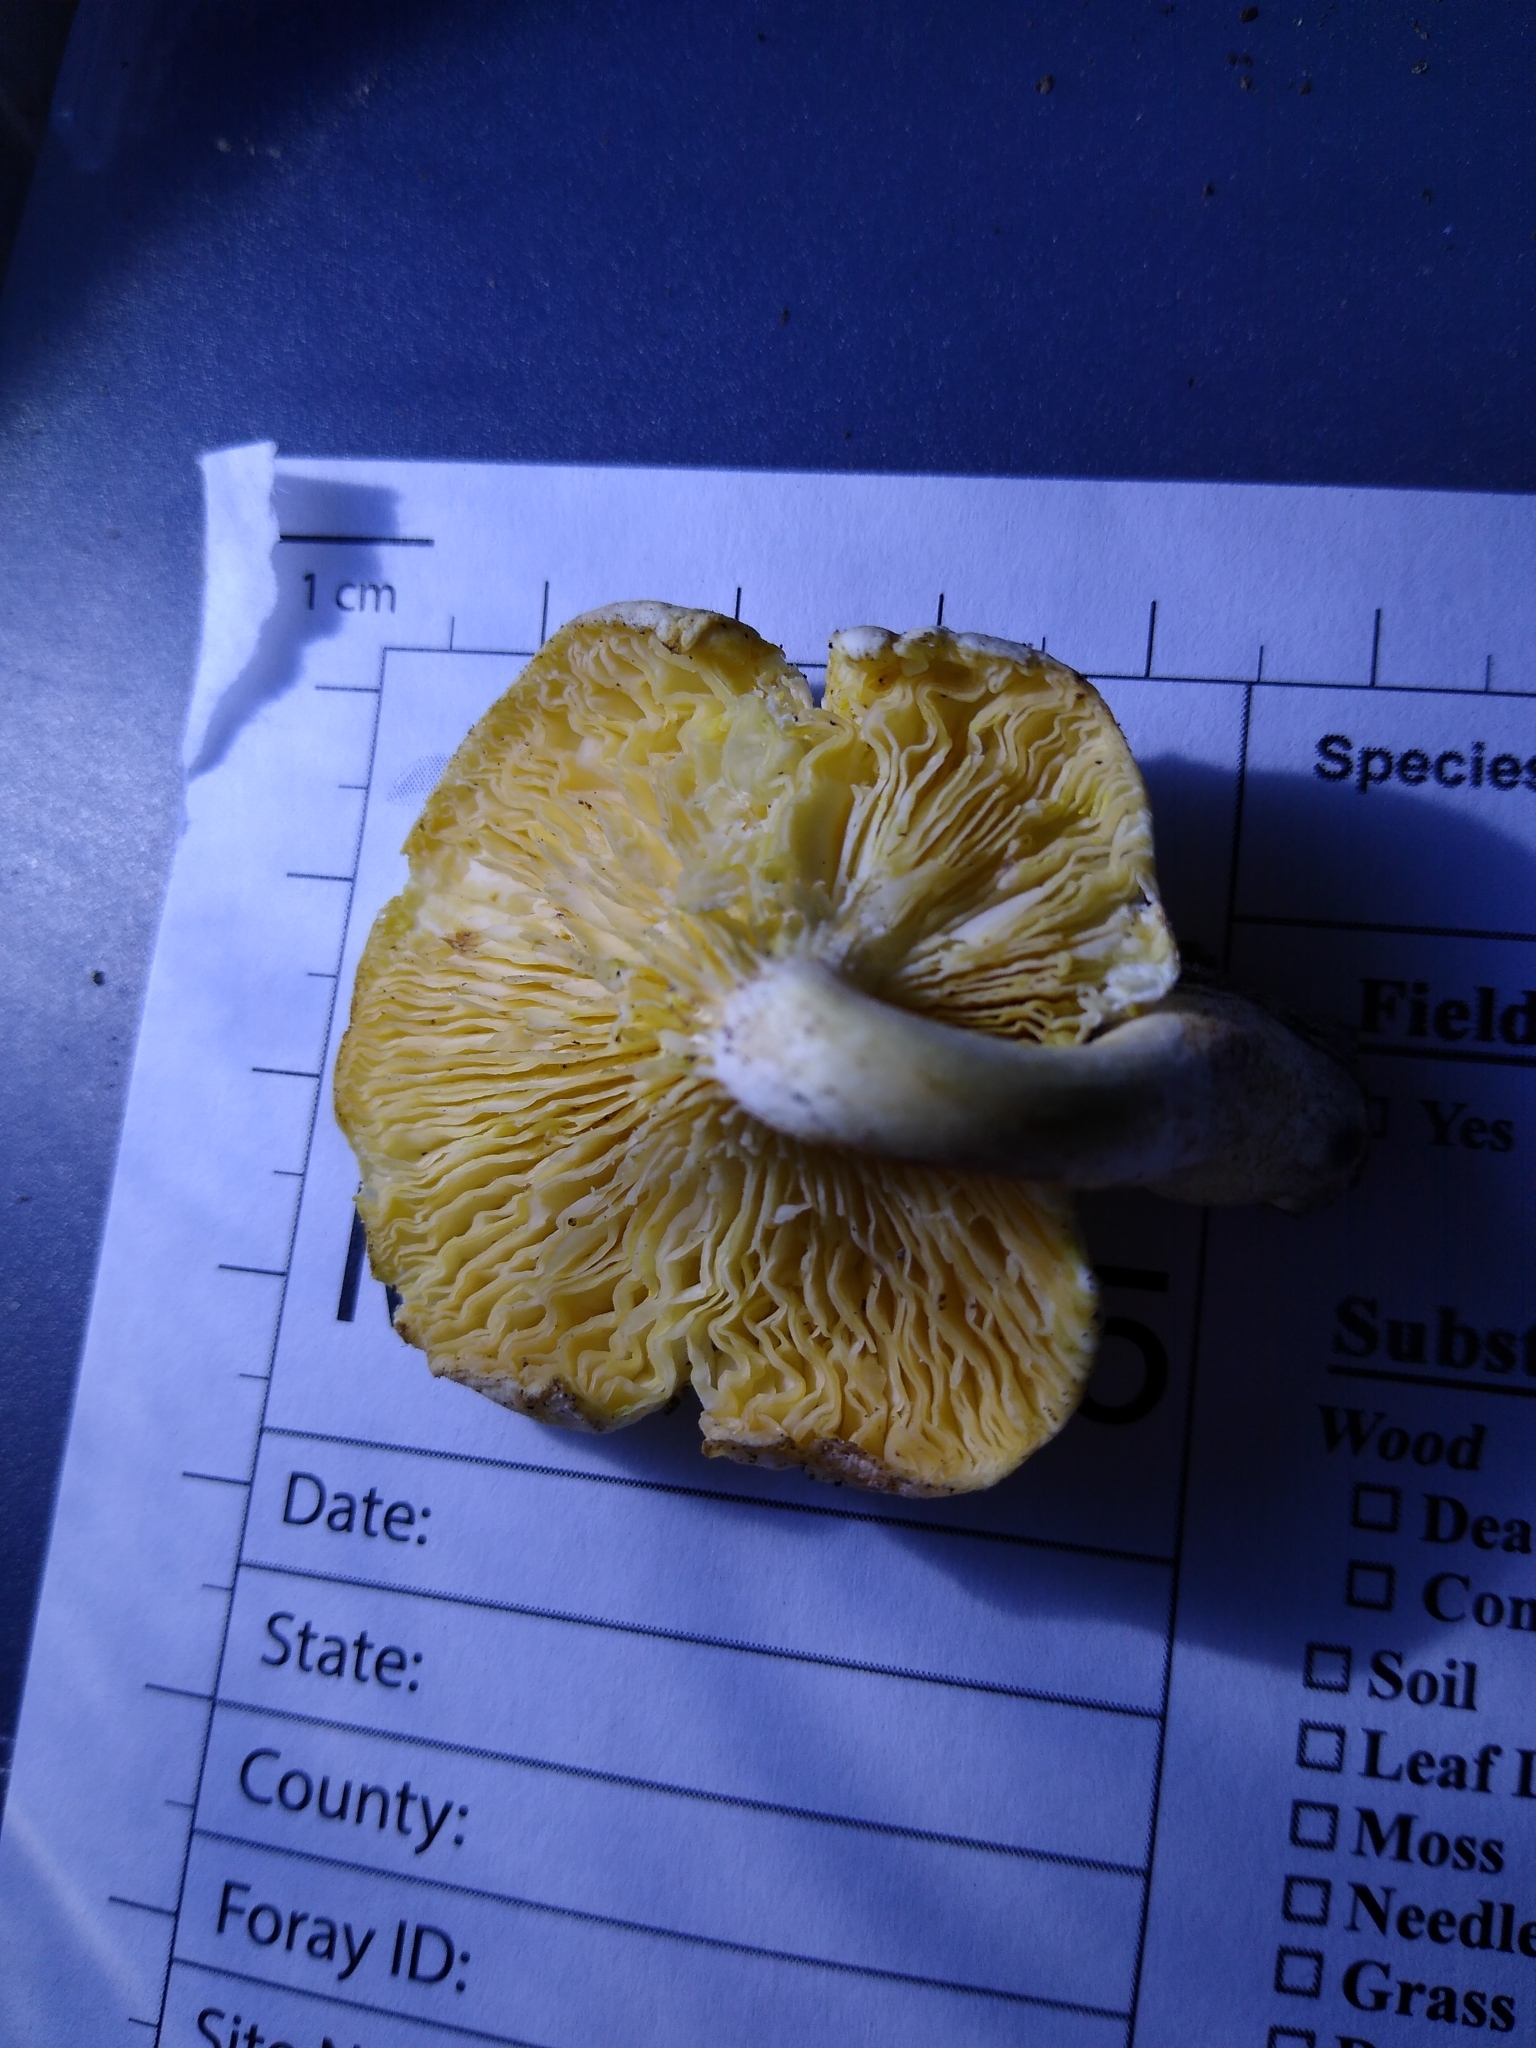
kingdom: Fungi
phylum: Basidiomycota
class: Agaricomycetes
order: Boletales
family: Hygrophoropsidaceae
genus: Hygrophoropsis
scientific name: Hygrophoropsis aurantiaca
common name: False chanterelle
